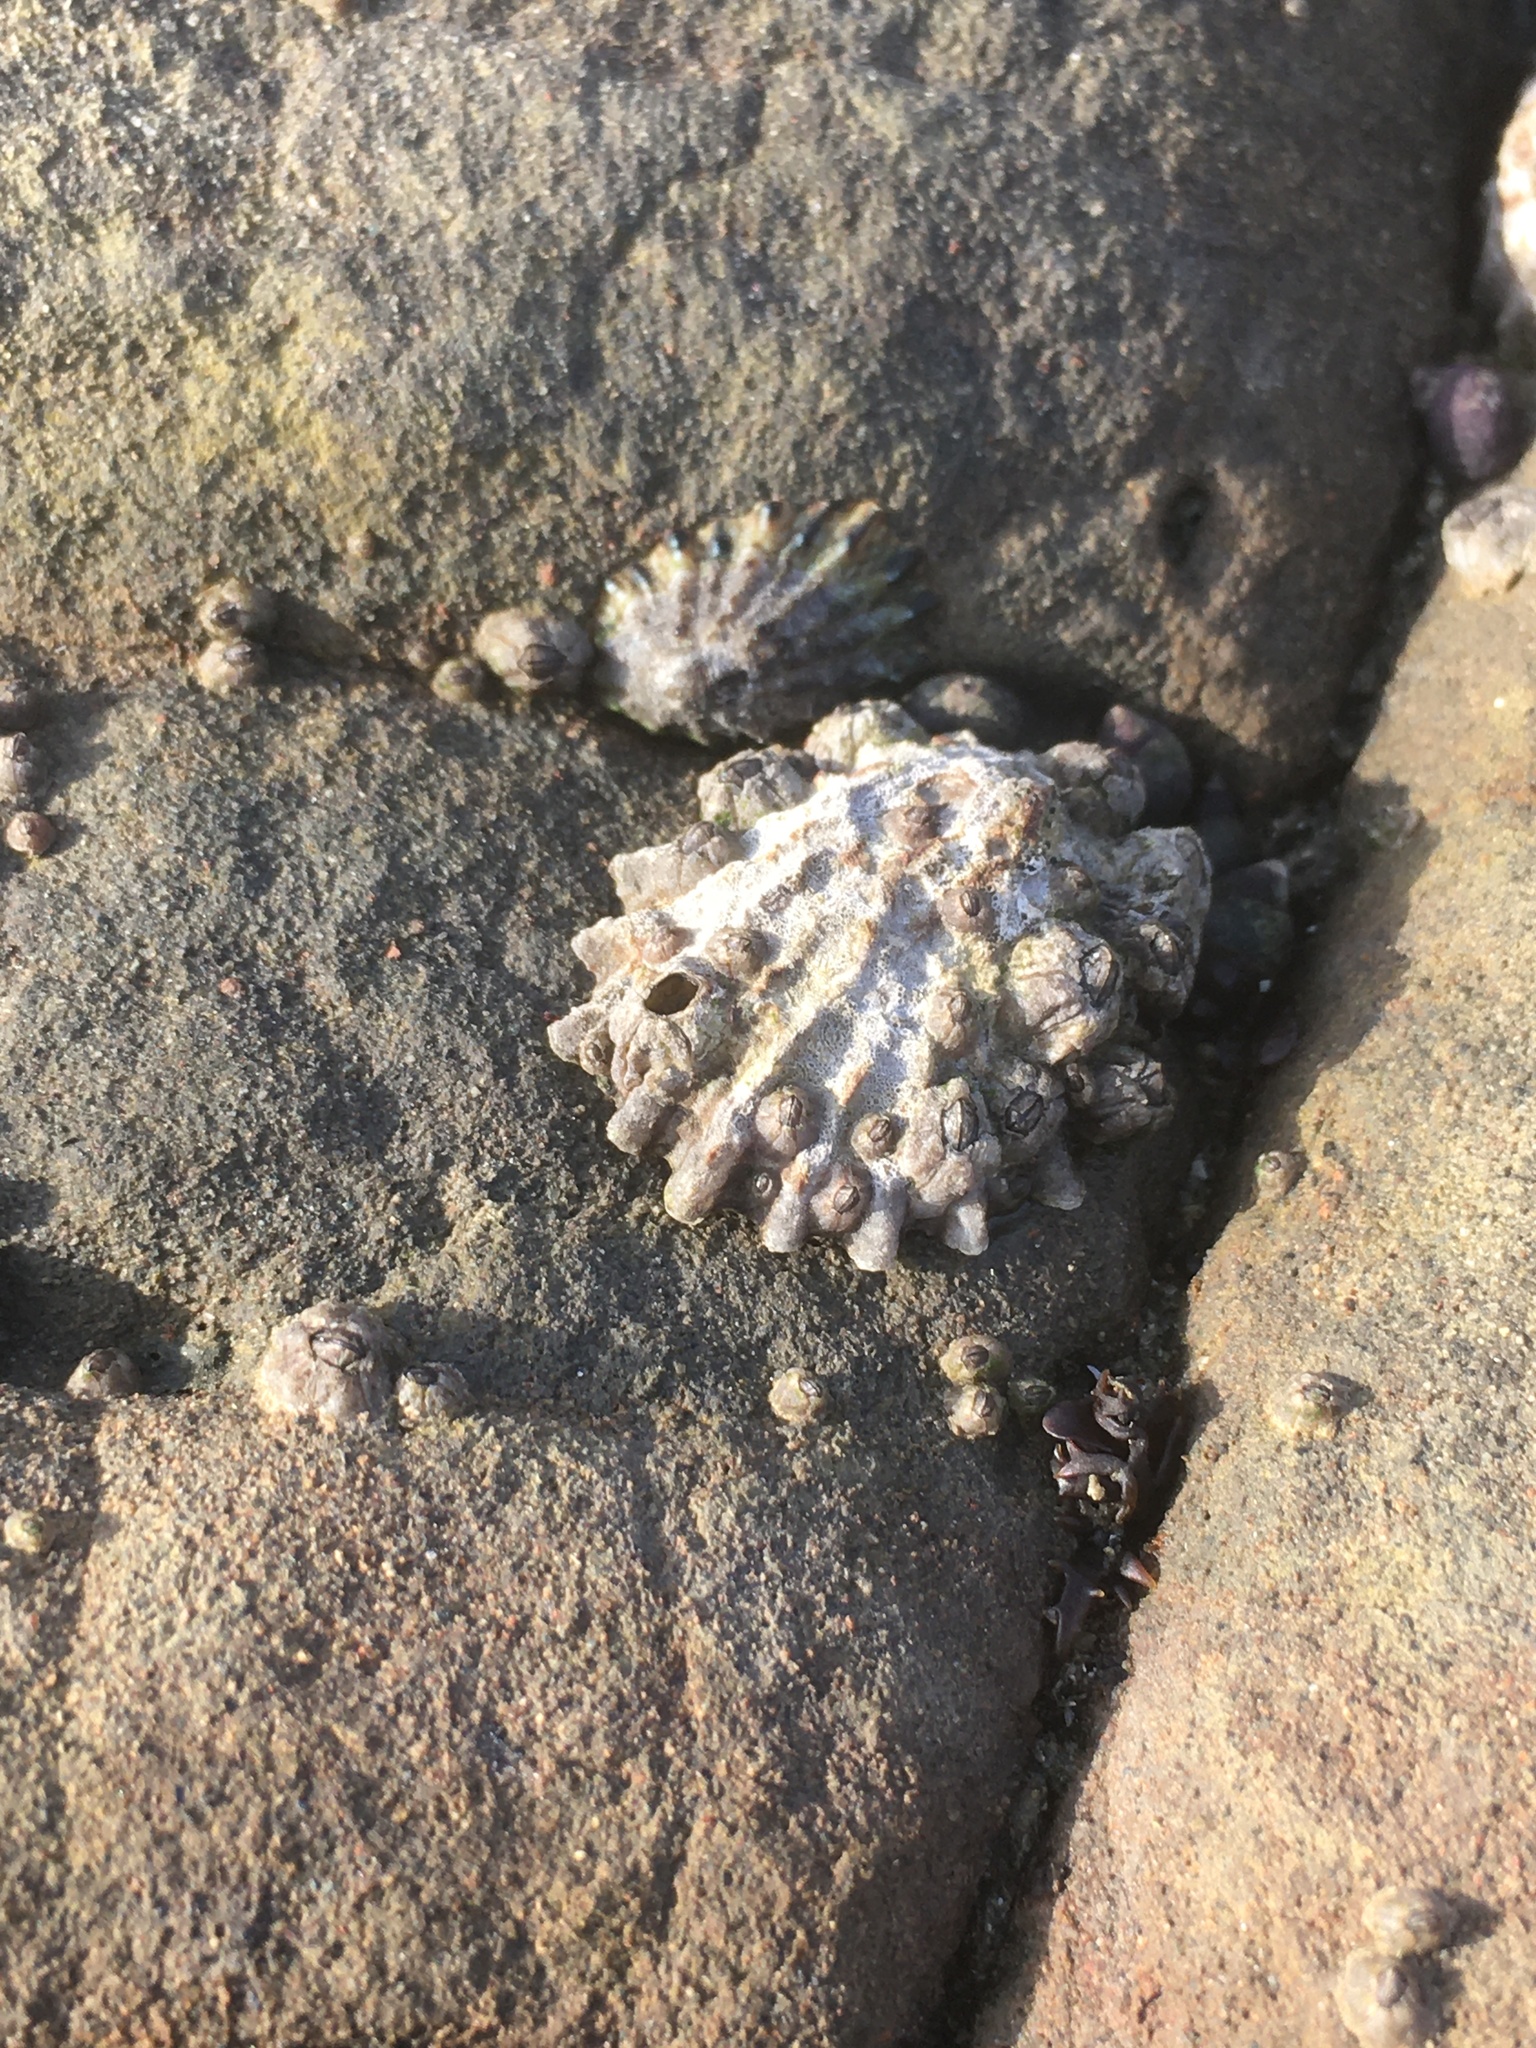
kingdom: Animalia
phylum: Mollusca
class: Gastropoda
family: Lottiidae
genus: Lottia
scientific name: Lottia scabra
